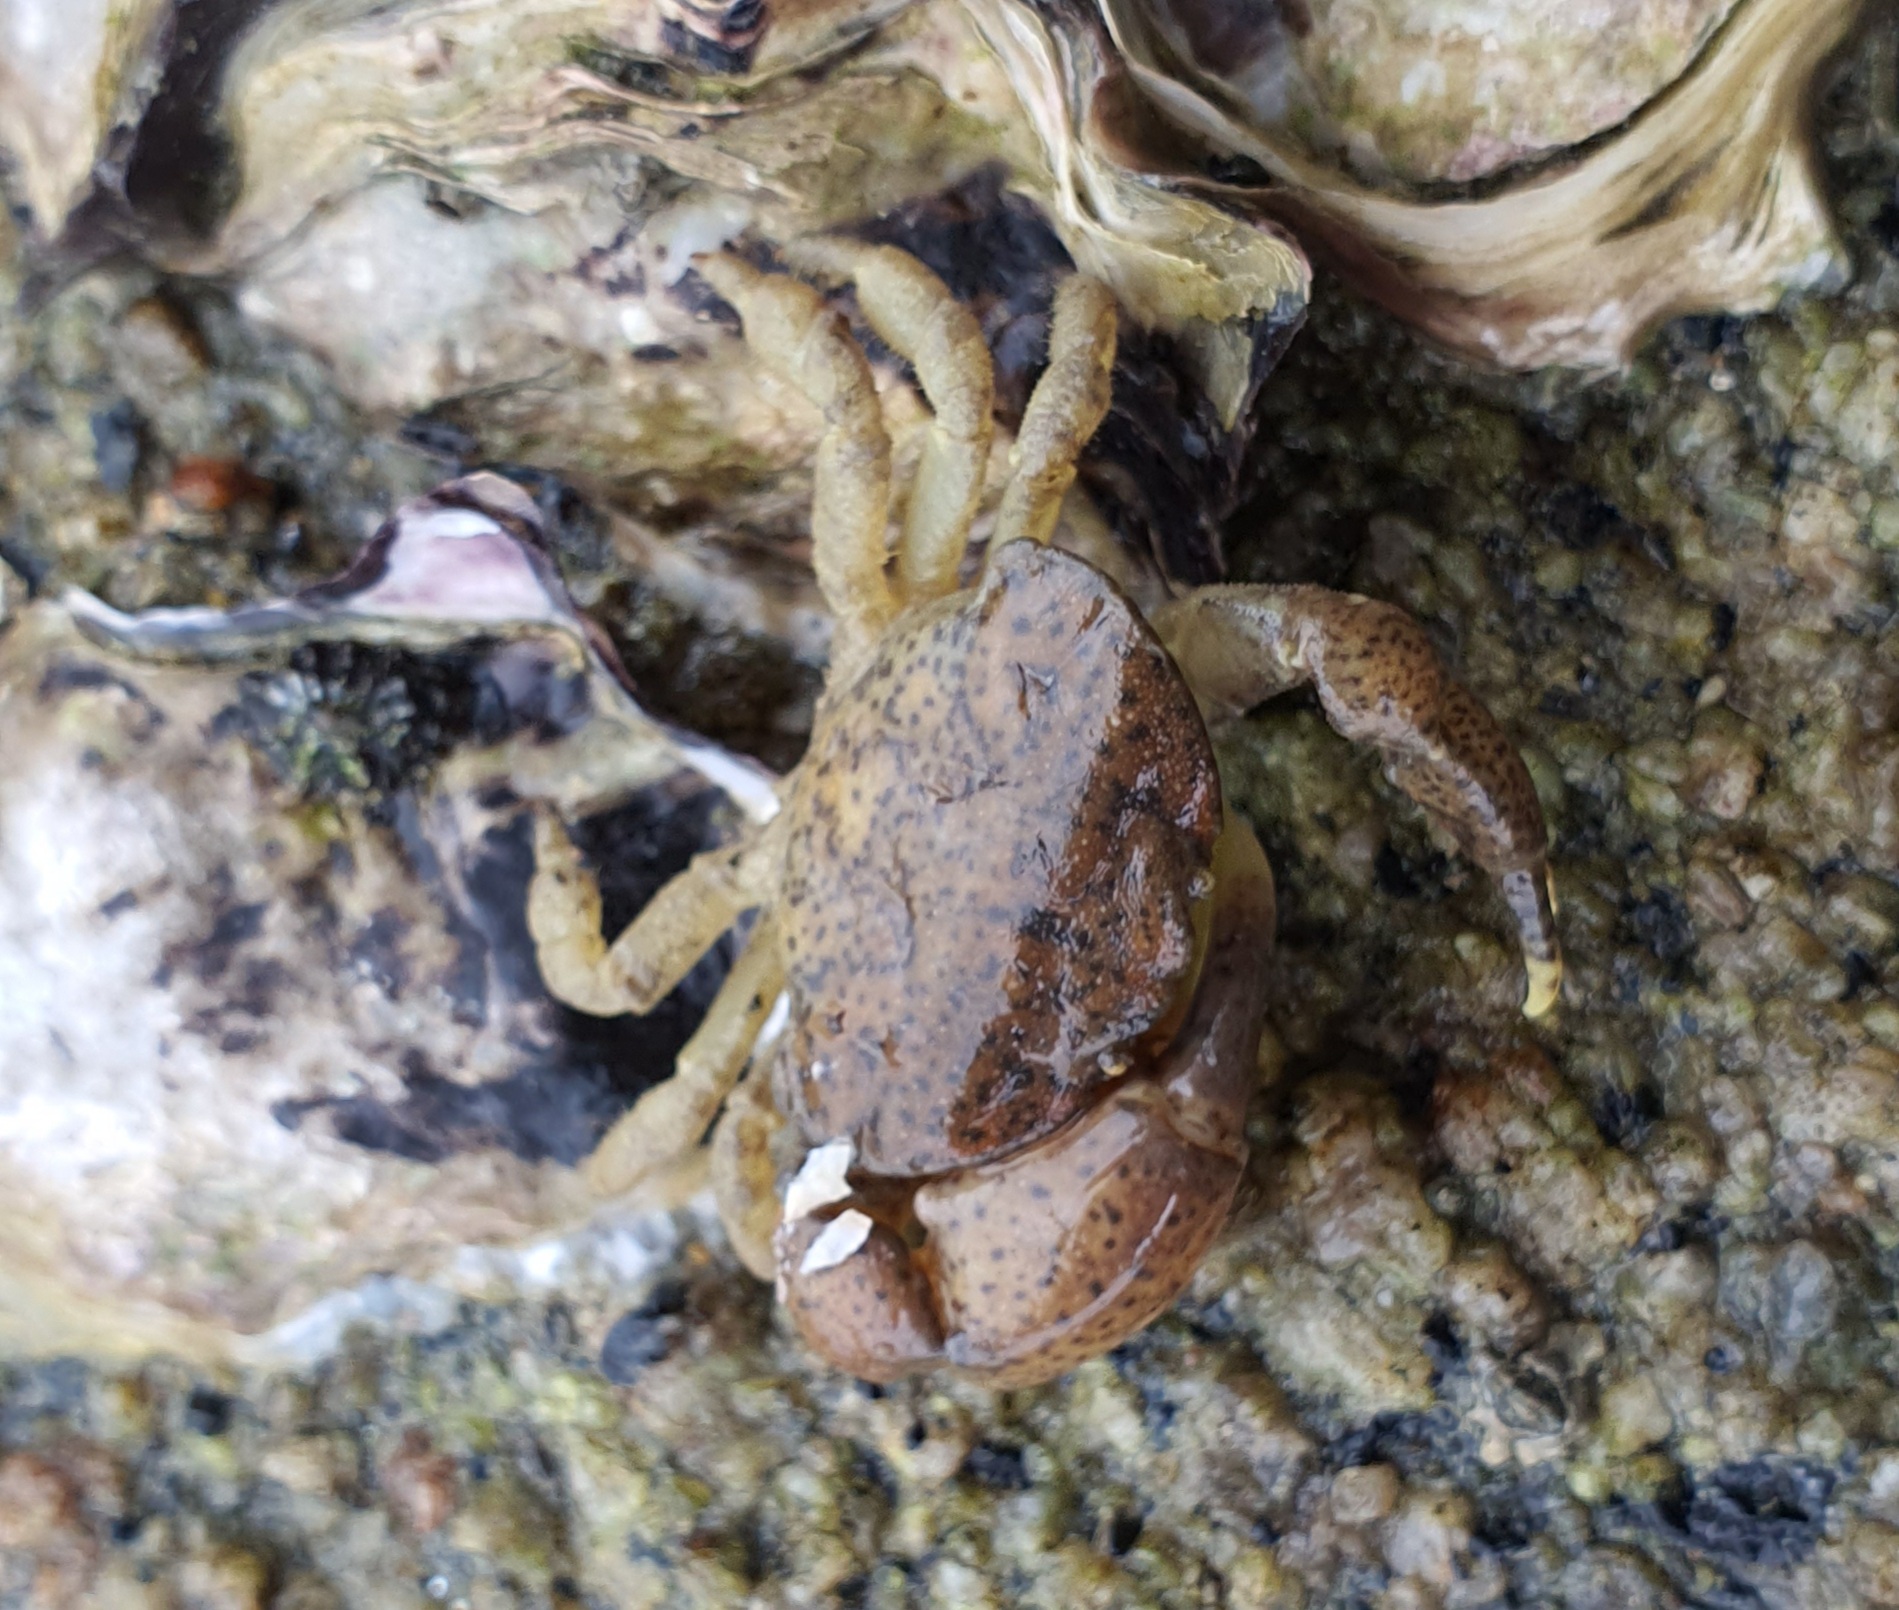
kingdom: Animalia
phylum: Arthropoda
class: Malacostraca
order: Decapoda
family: Heteroziidae
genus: Heterozius
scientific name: Heterozius rotundifrons
